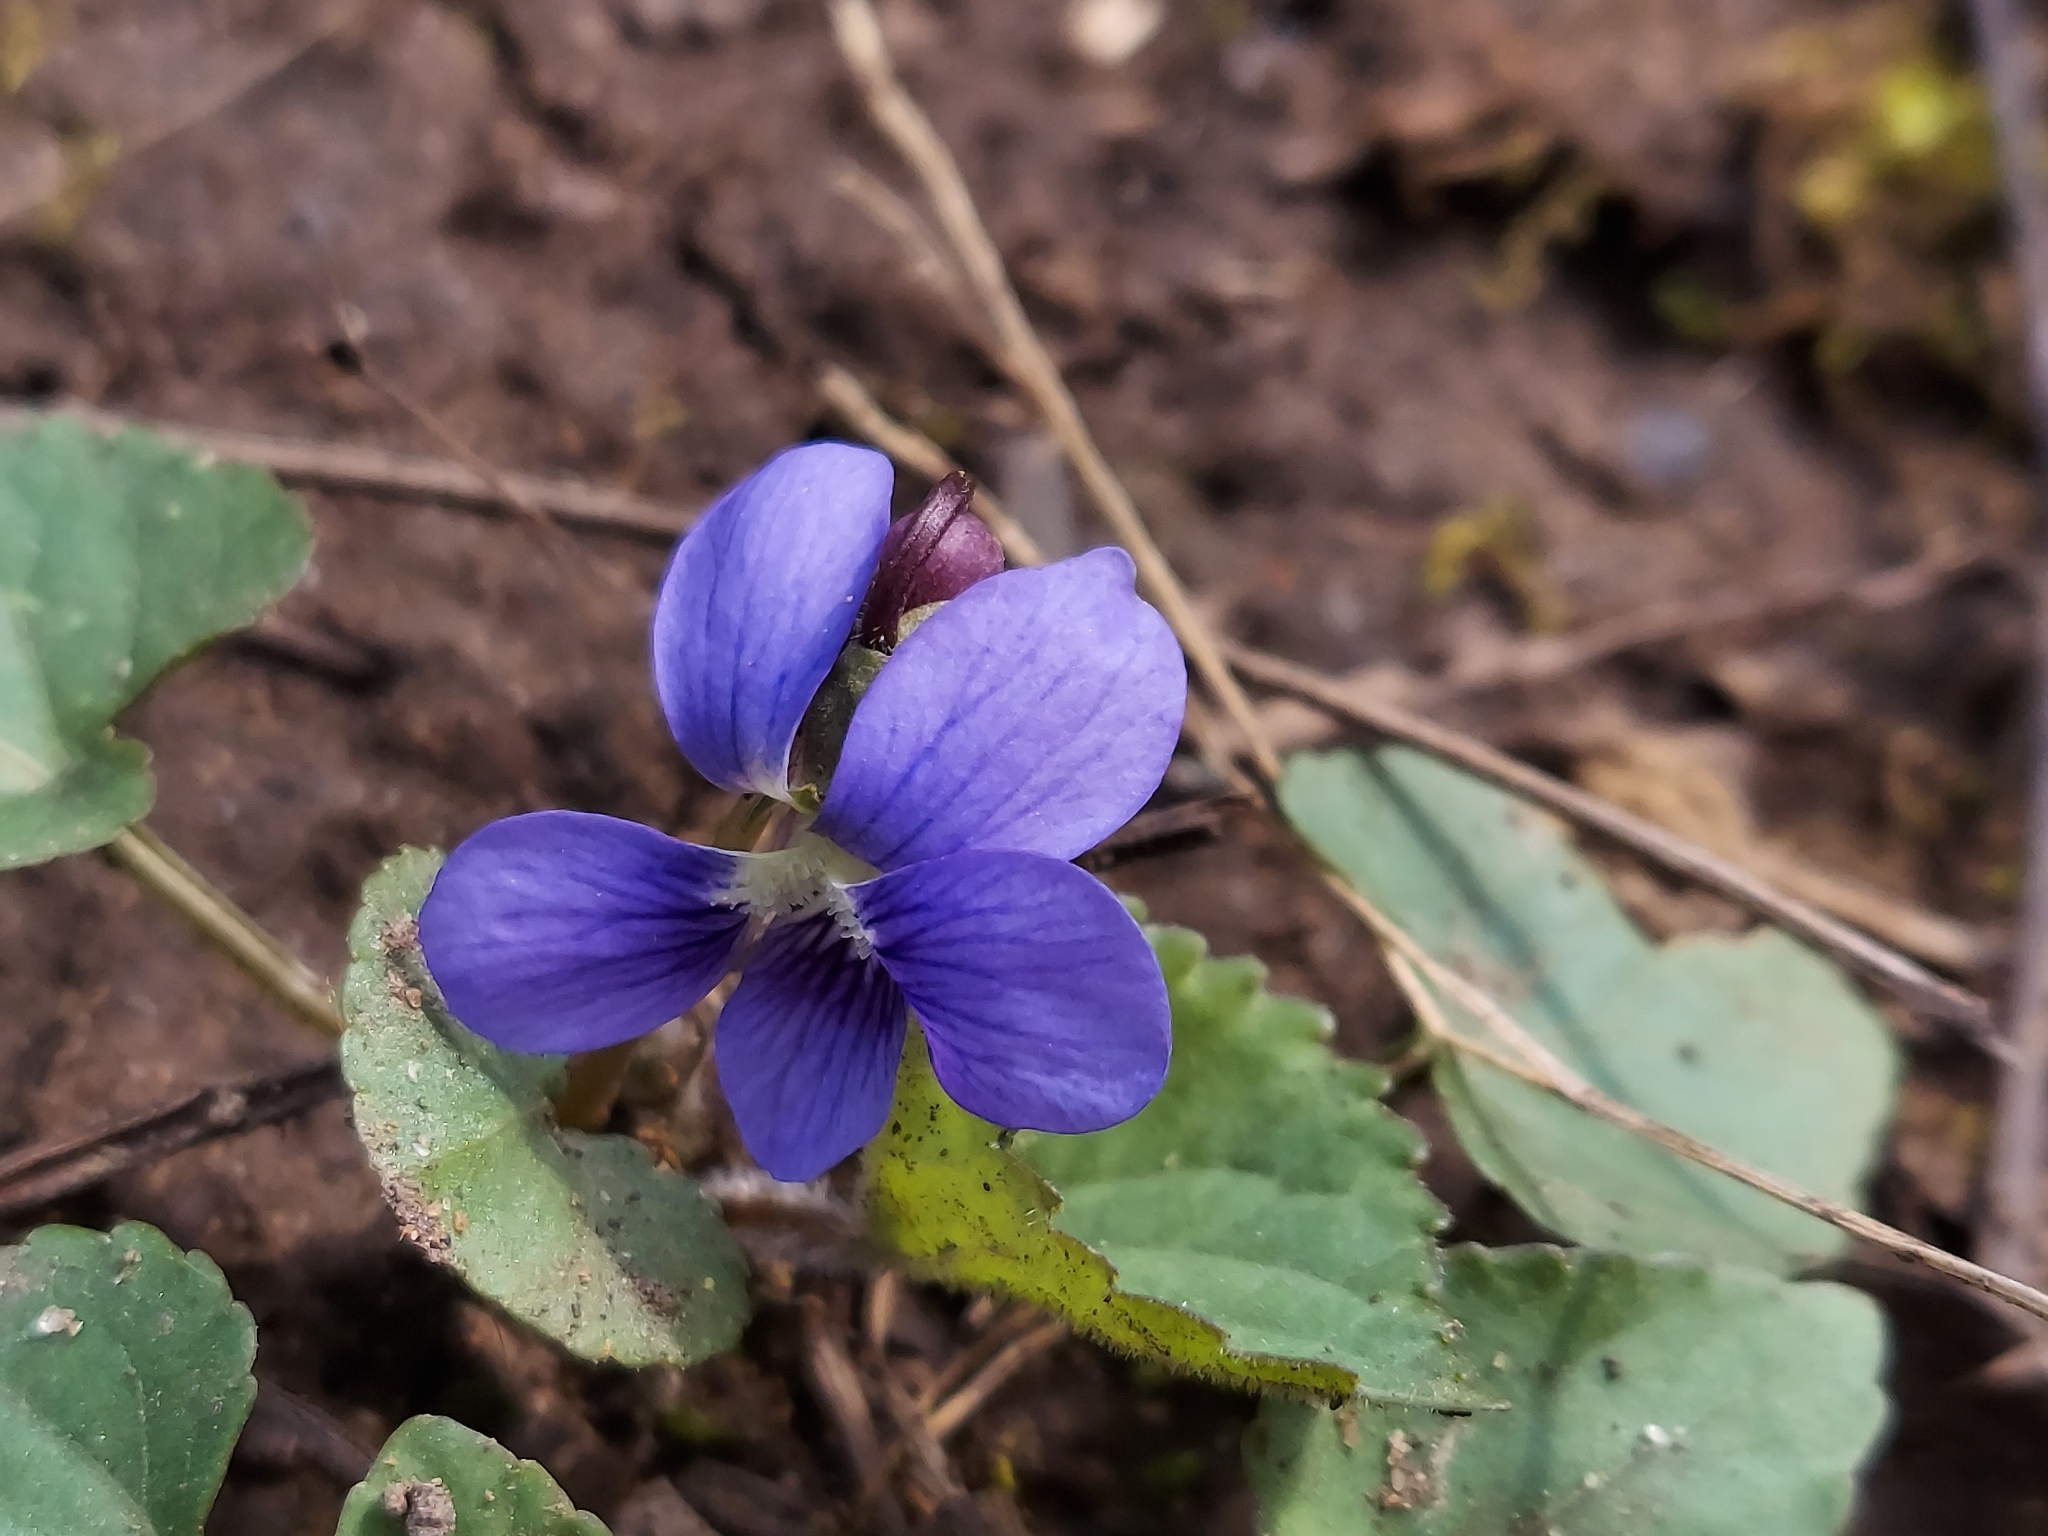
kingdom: Plantae
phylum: Tracheophyta
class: Magnoliopsida
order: Malpighiales
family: Violaceae
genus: Viola
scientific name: Viola sororia
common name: Dooryard violet
